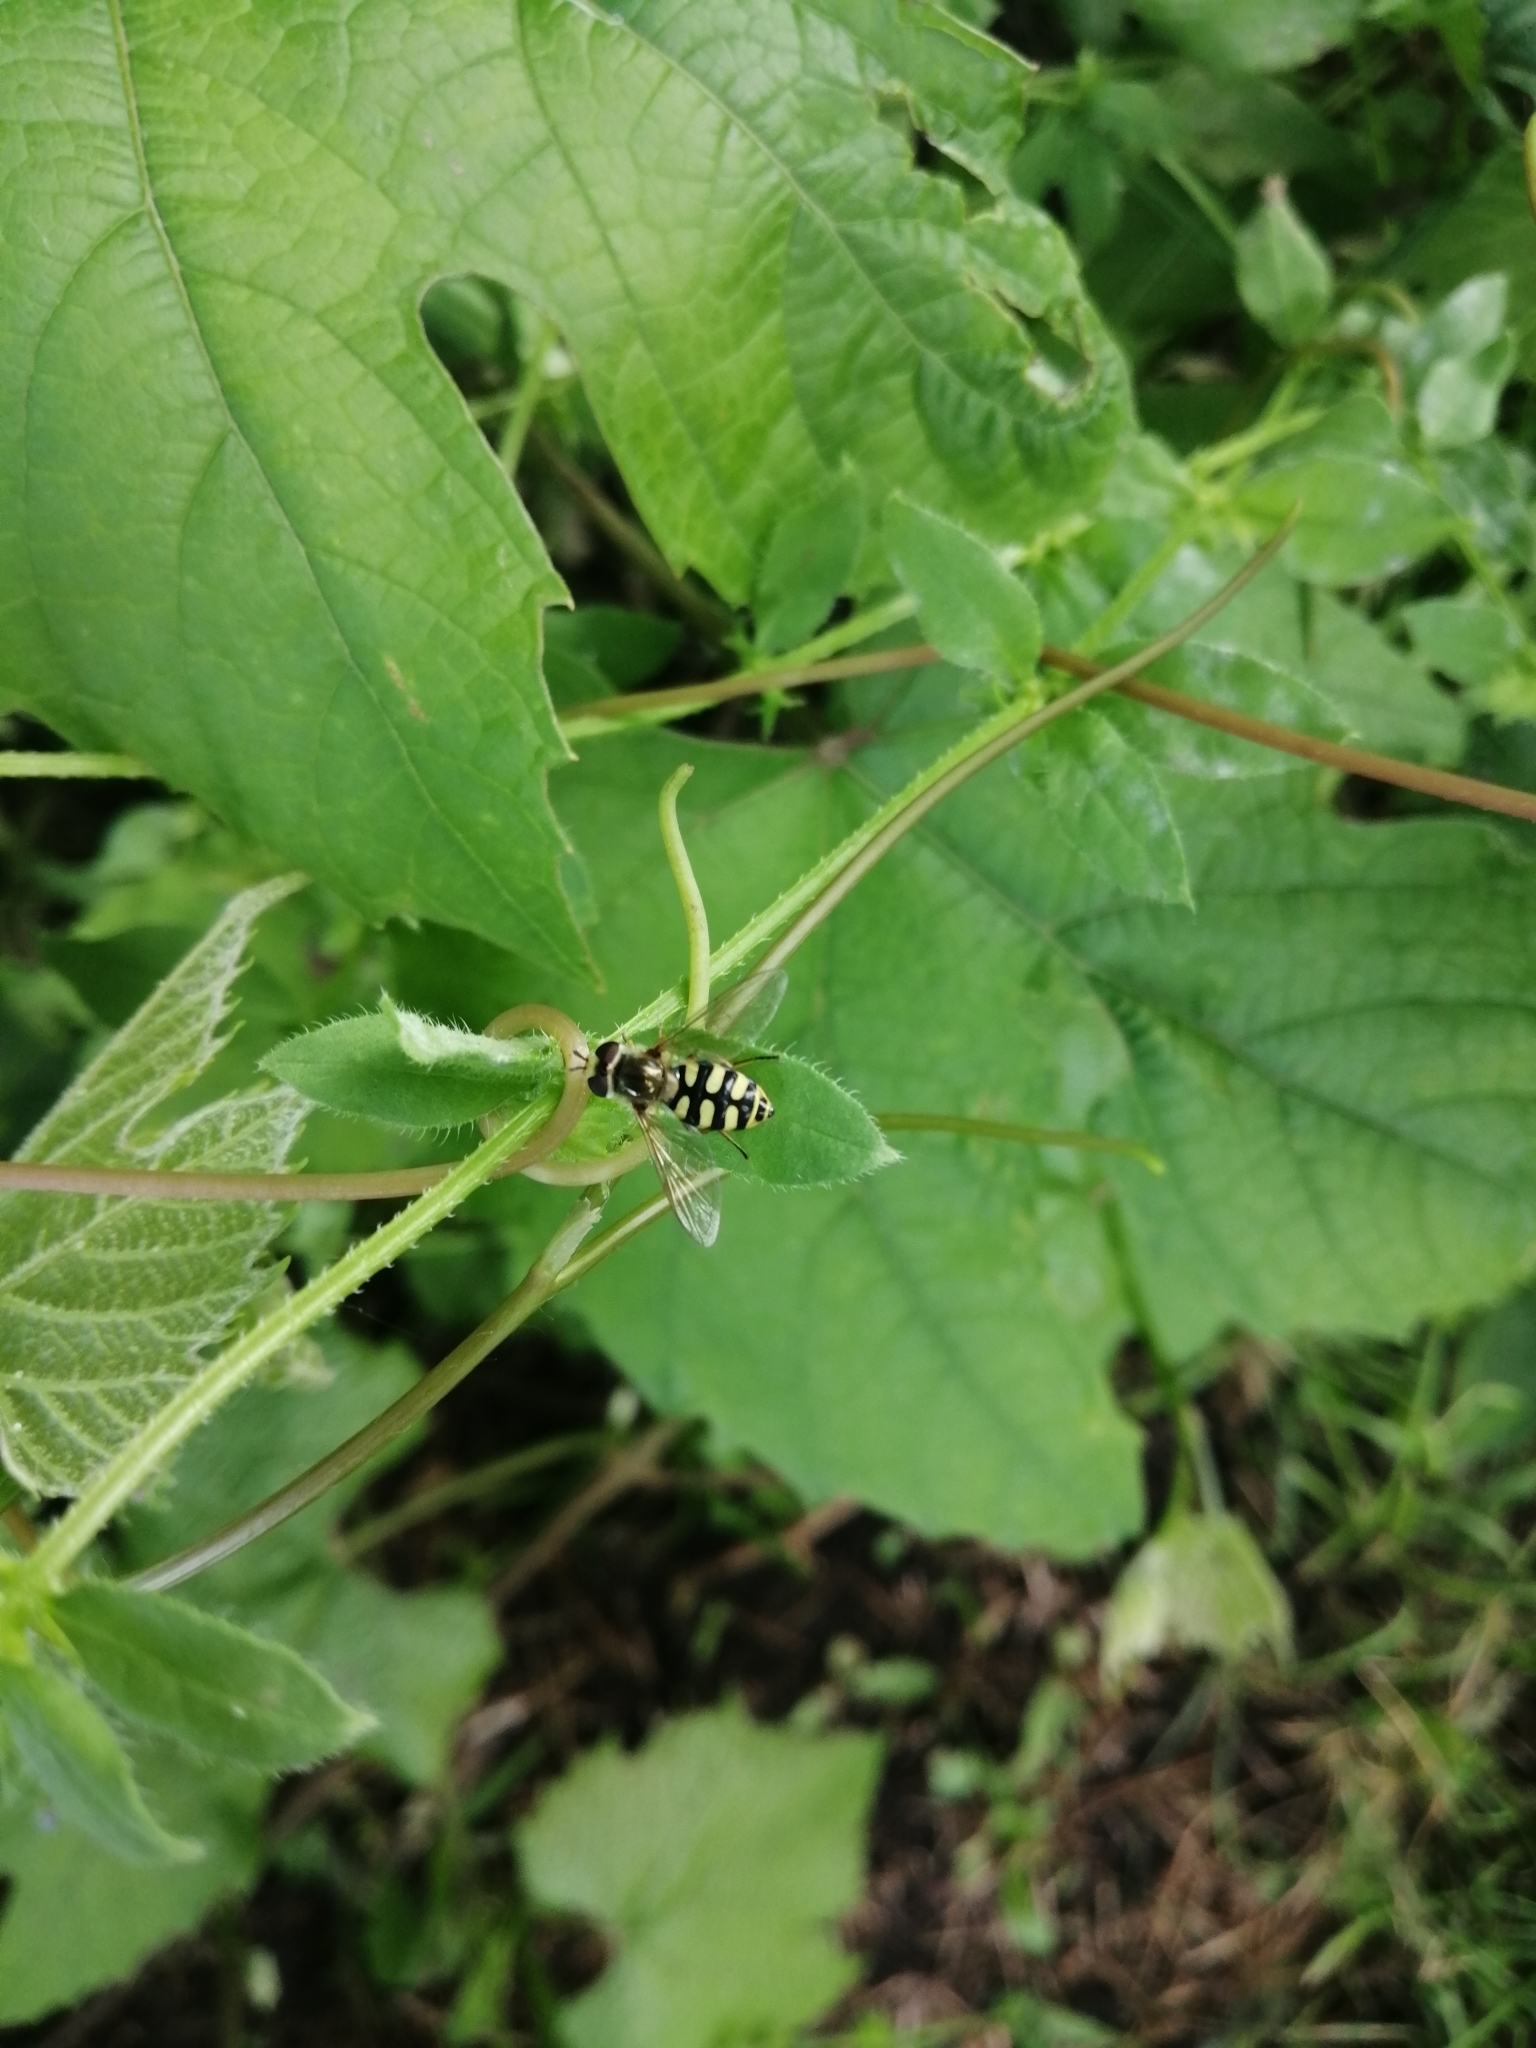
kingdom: Animalia
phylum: Arthropoda
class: Insecta
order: Diptera
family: Syrphidae
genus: Eupeodes
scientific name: Eupeodes corollae
